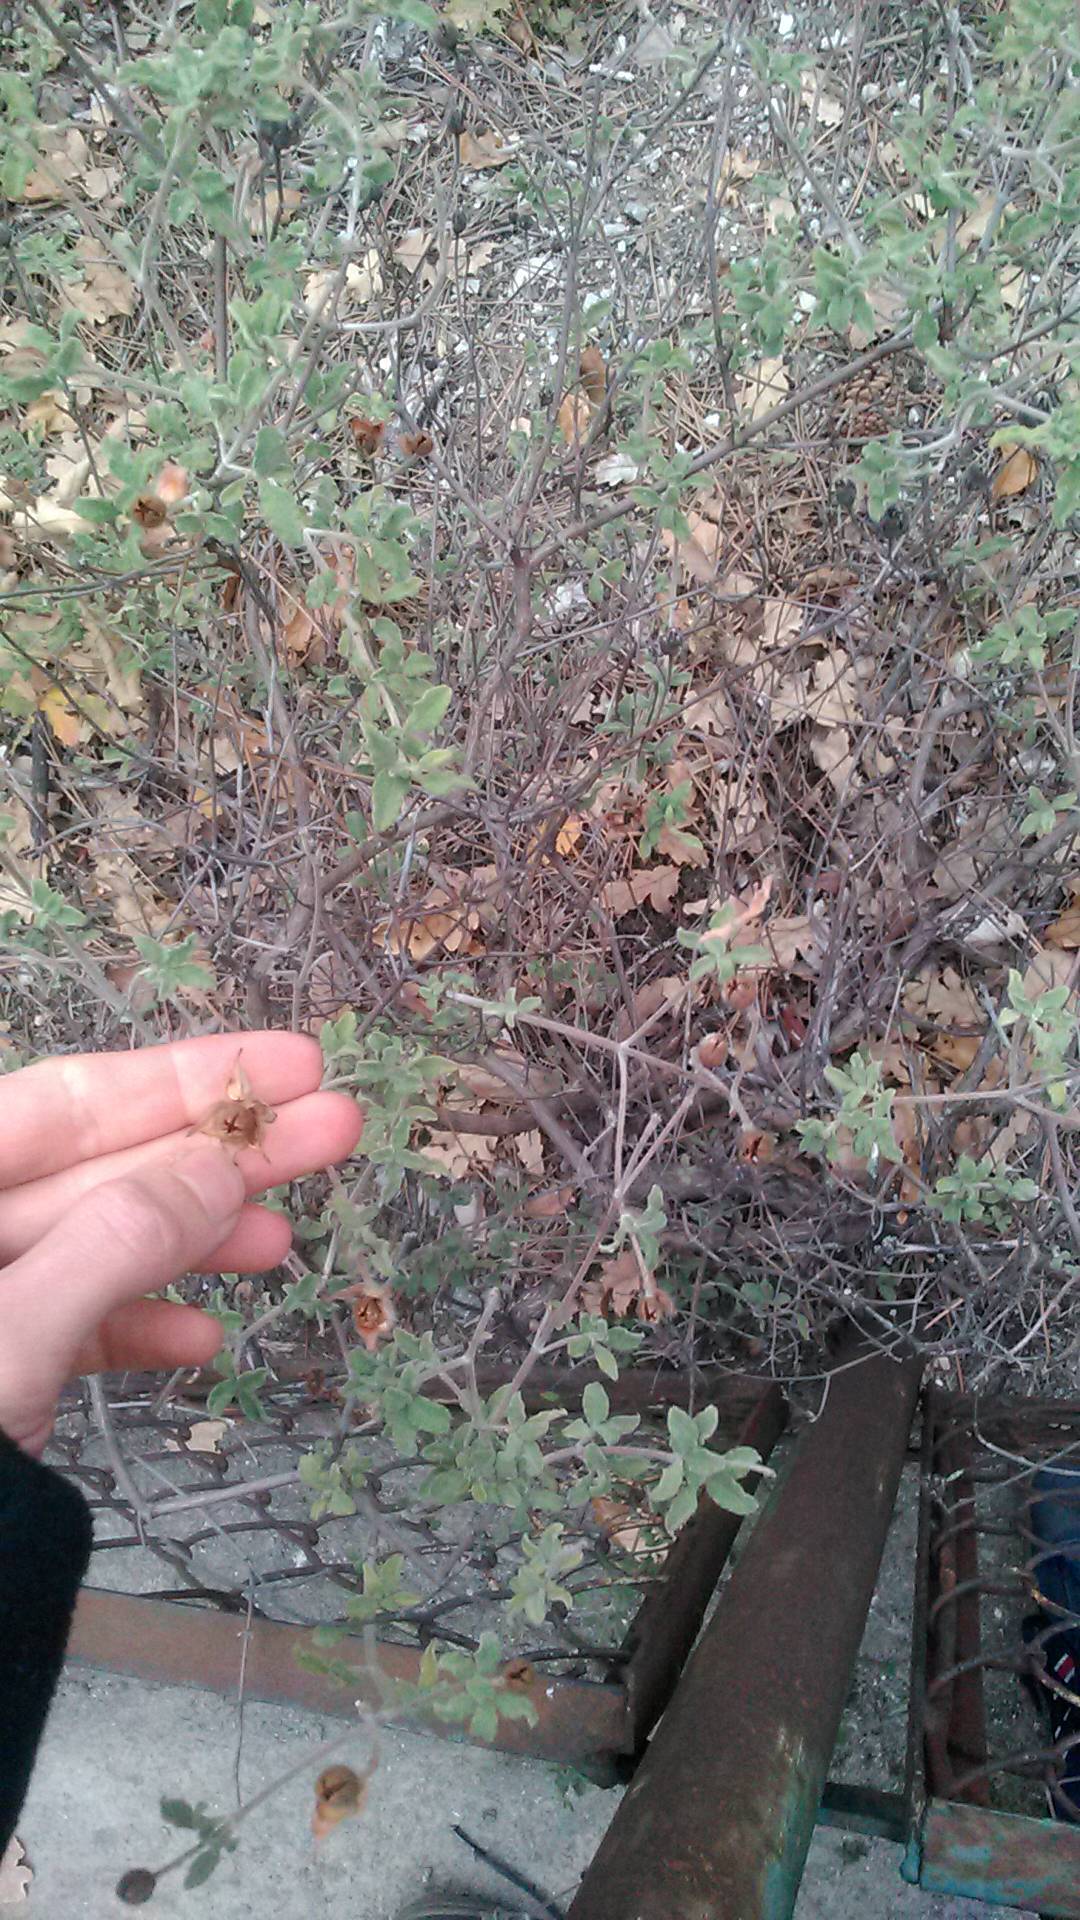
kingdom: Plantae
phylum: Tracheophyta
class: Magnoliopsida
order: Malvales
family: Cistaceae
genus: Cistus
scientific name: Cistus tauricus
